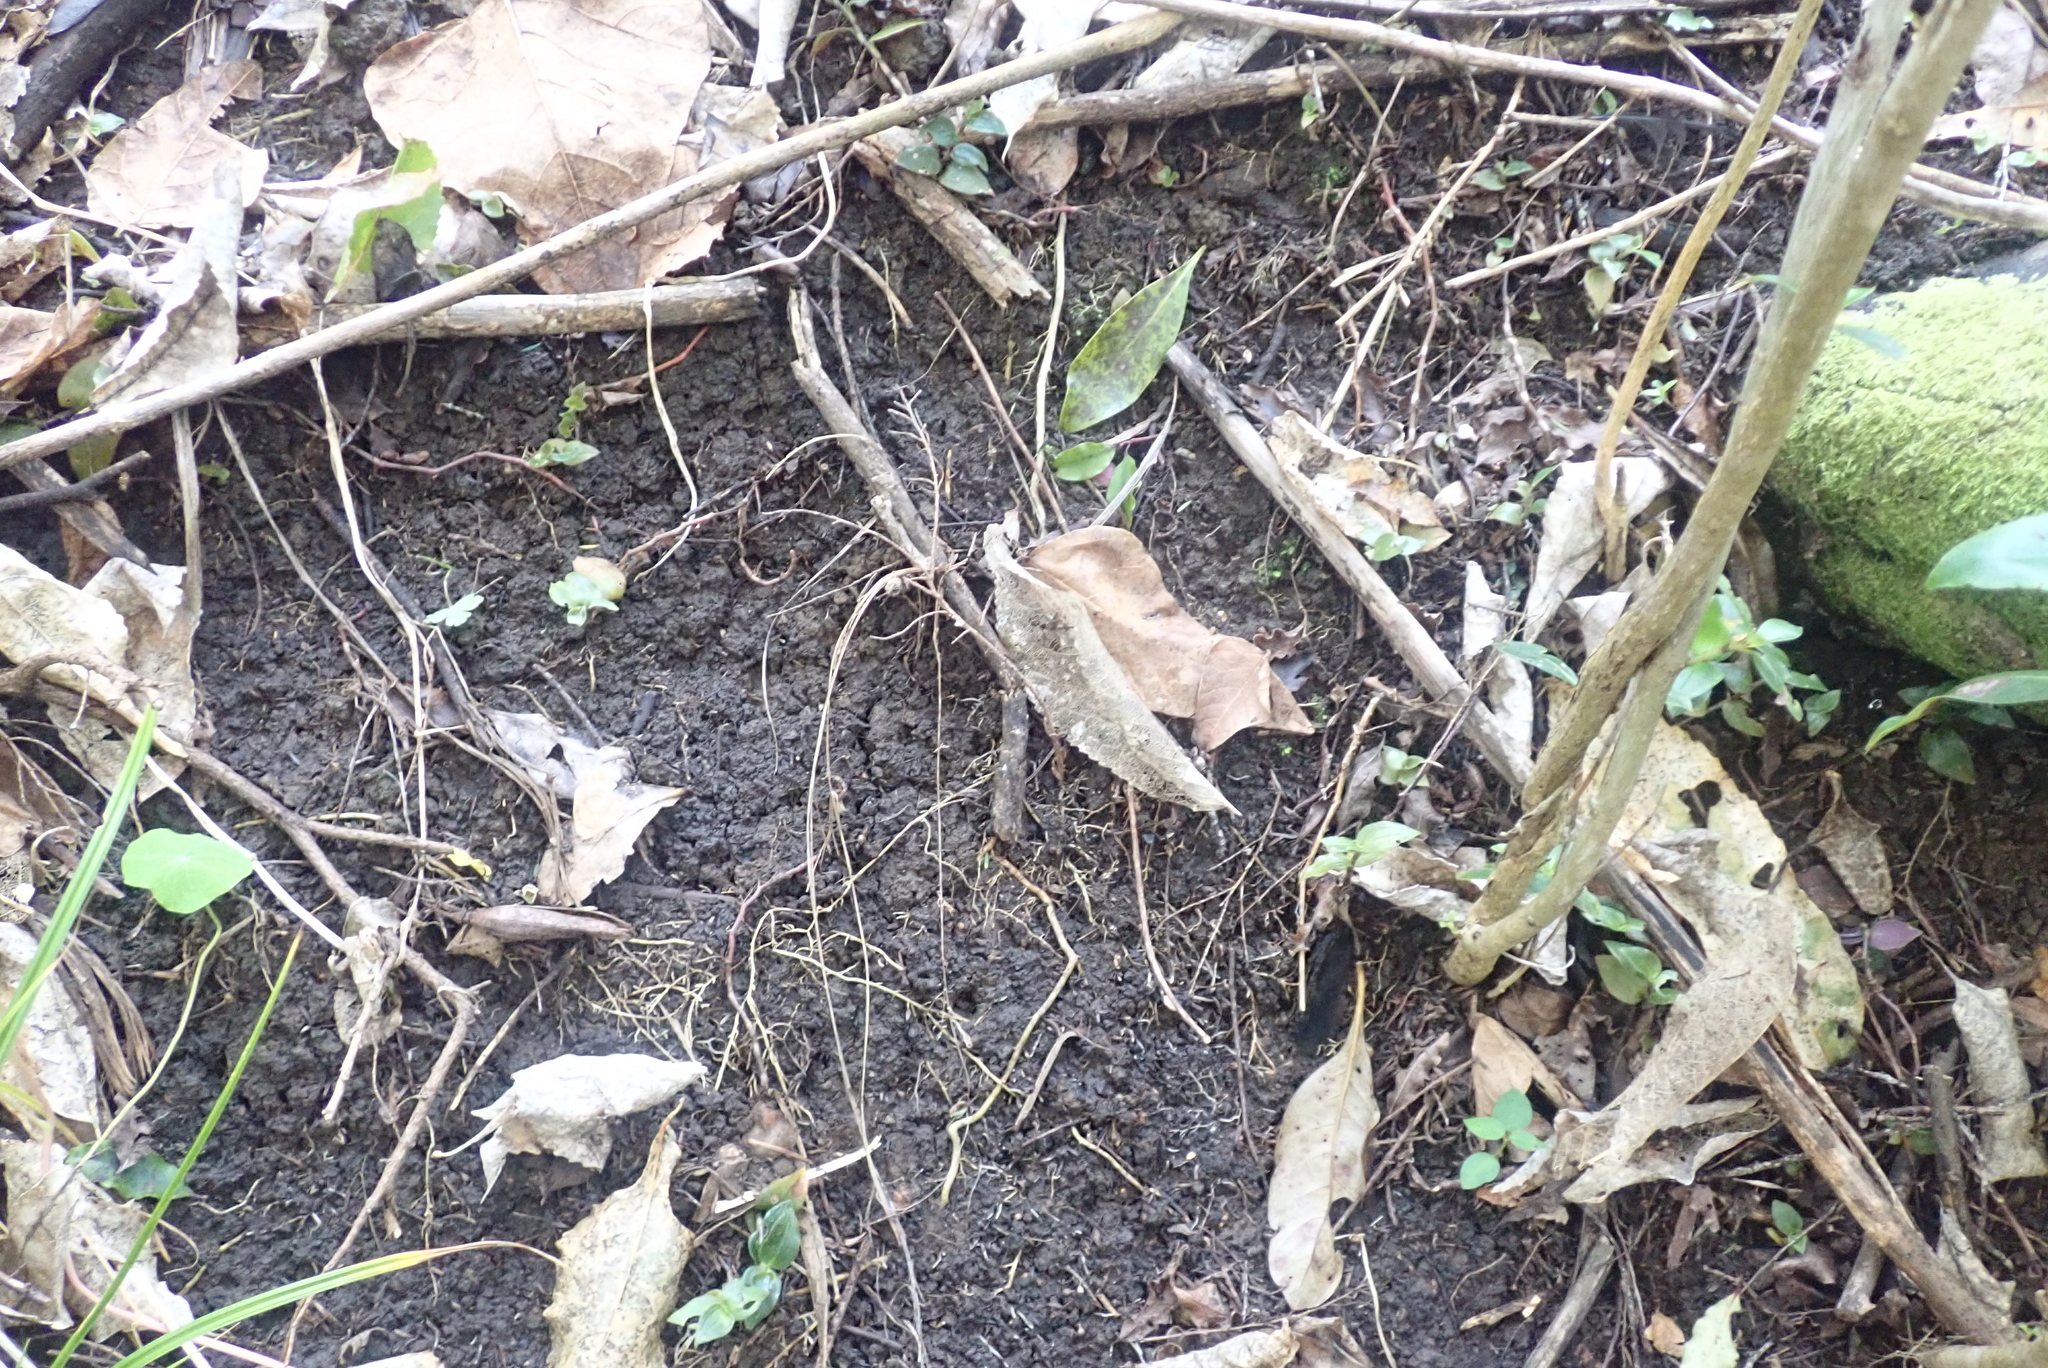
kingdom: Plantae
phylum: Tracheophyta
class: Liliopsida
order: Commelinales
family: Commelinaceae
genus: Tradescantia
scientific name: Tradescantia fluminensis
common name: Wandering-jew
